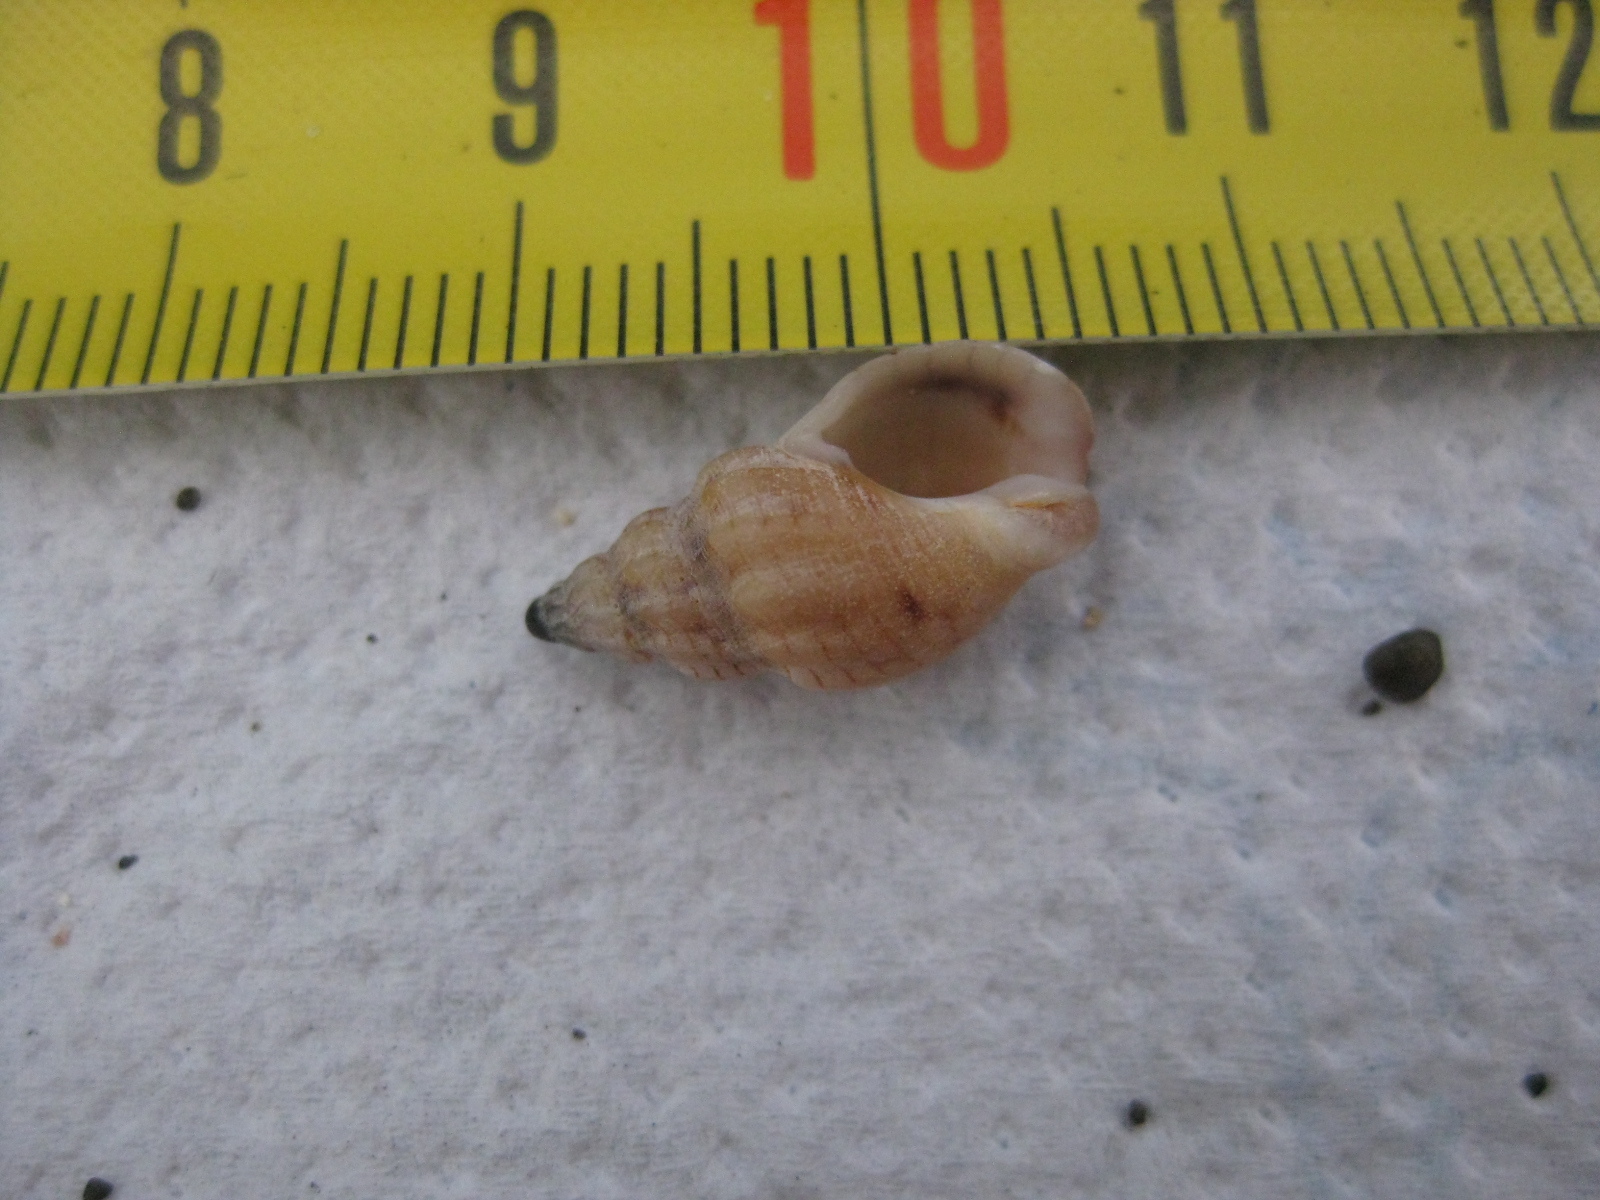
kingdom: Animalia
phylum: Mollusca
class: Gastropoda
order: Neogastropoda
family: Cominellidae
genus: Cominella
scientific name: Cominella quoyana
